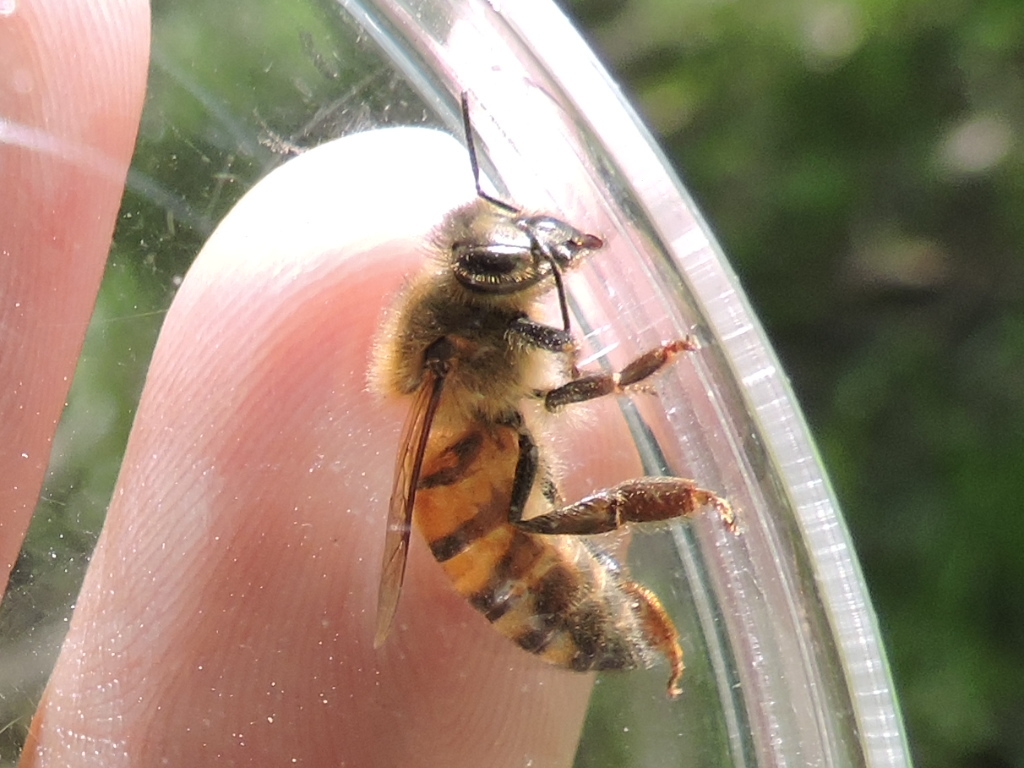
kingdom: Animalia
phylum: Arthropoda
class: Insecta
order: Hymenoptera
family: Apidae
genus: Apis
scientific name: Apis mellifera
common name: Honey bee
